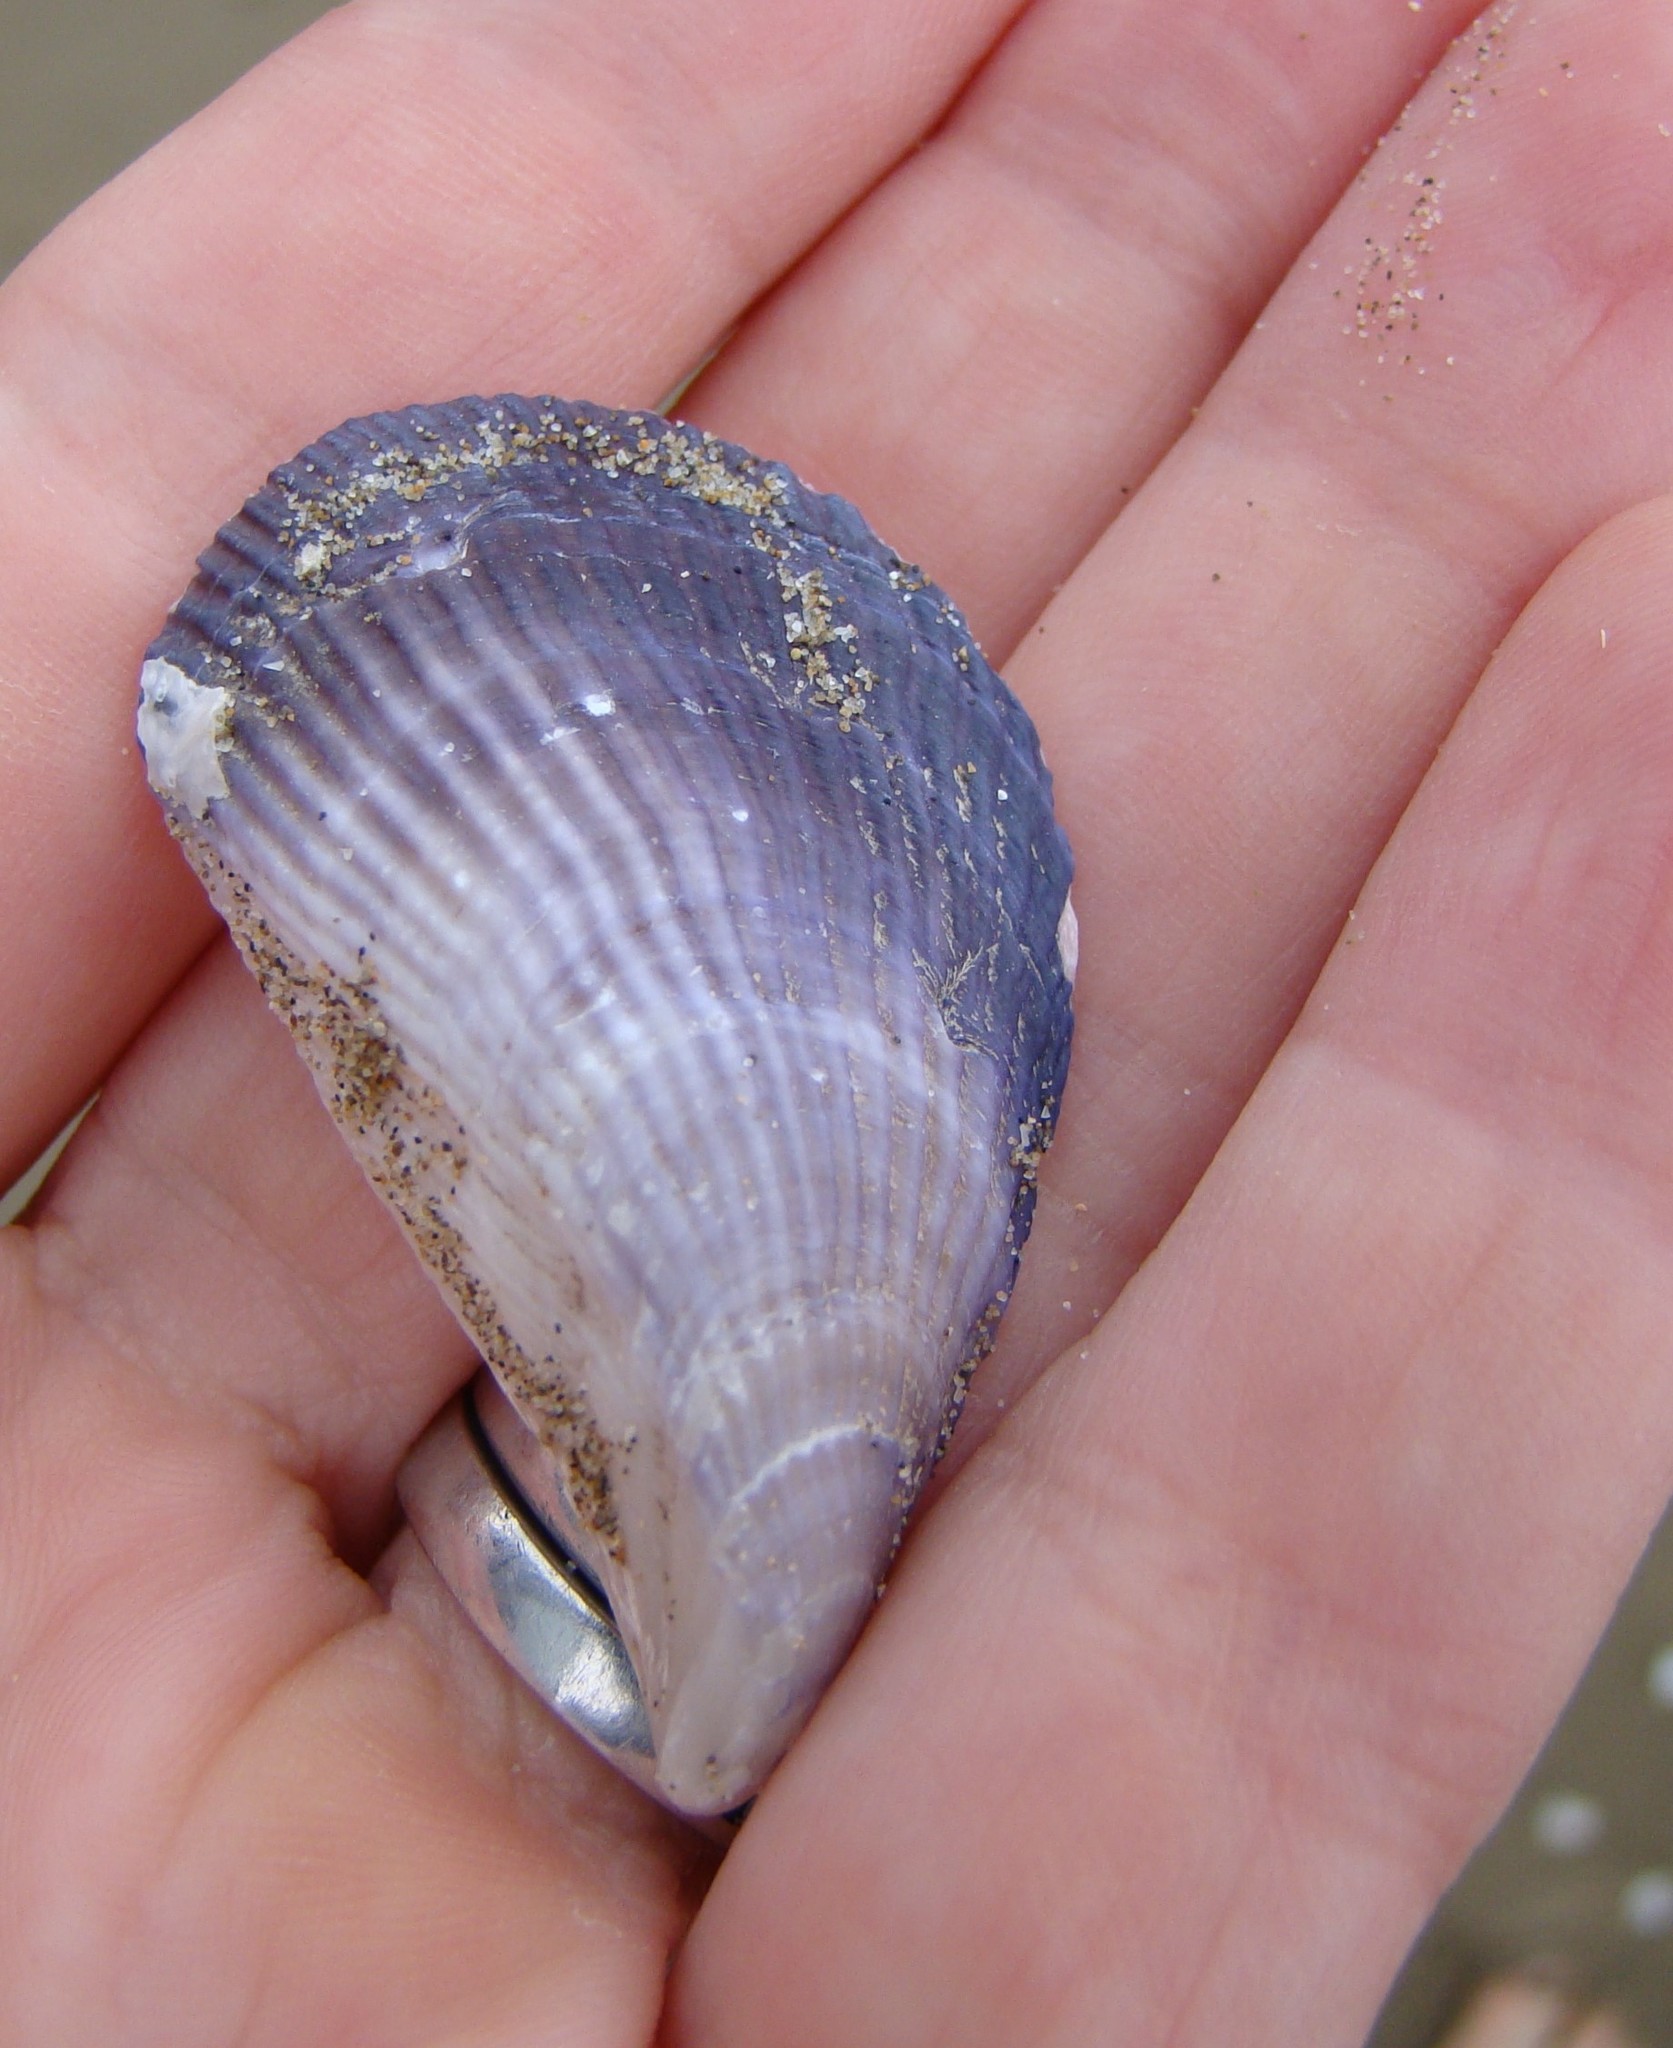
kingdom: Animalia
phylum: Mollusca
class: Bivalvia
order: Mytilida
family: Mytilidae
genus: Aulacomya
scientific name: Aulacomya maoriana
